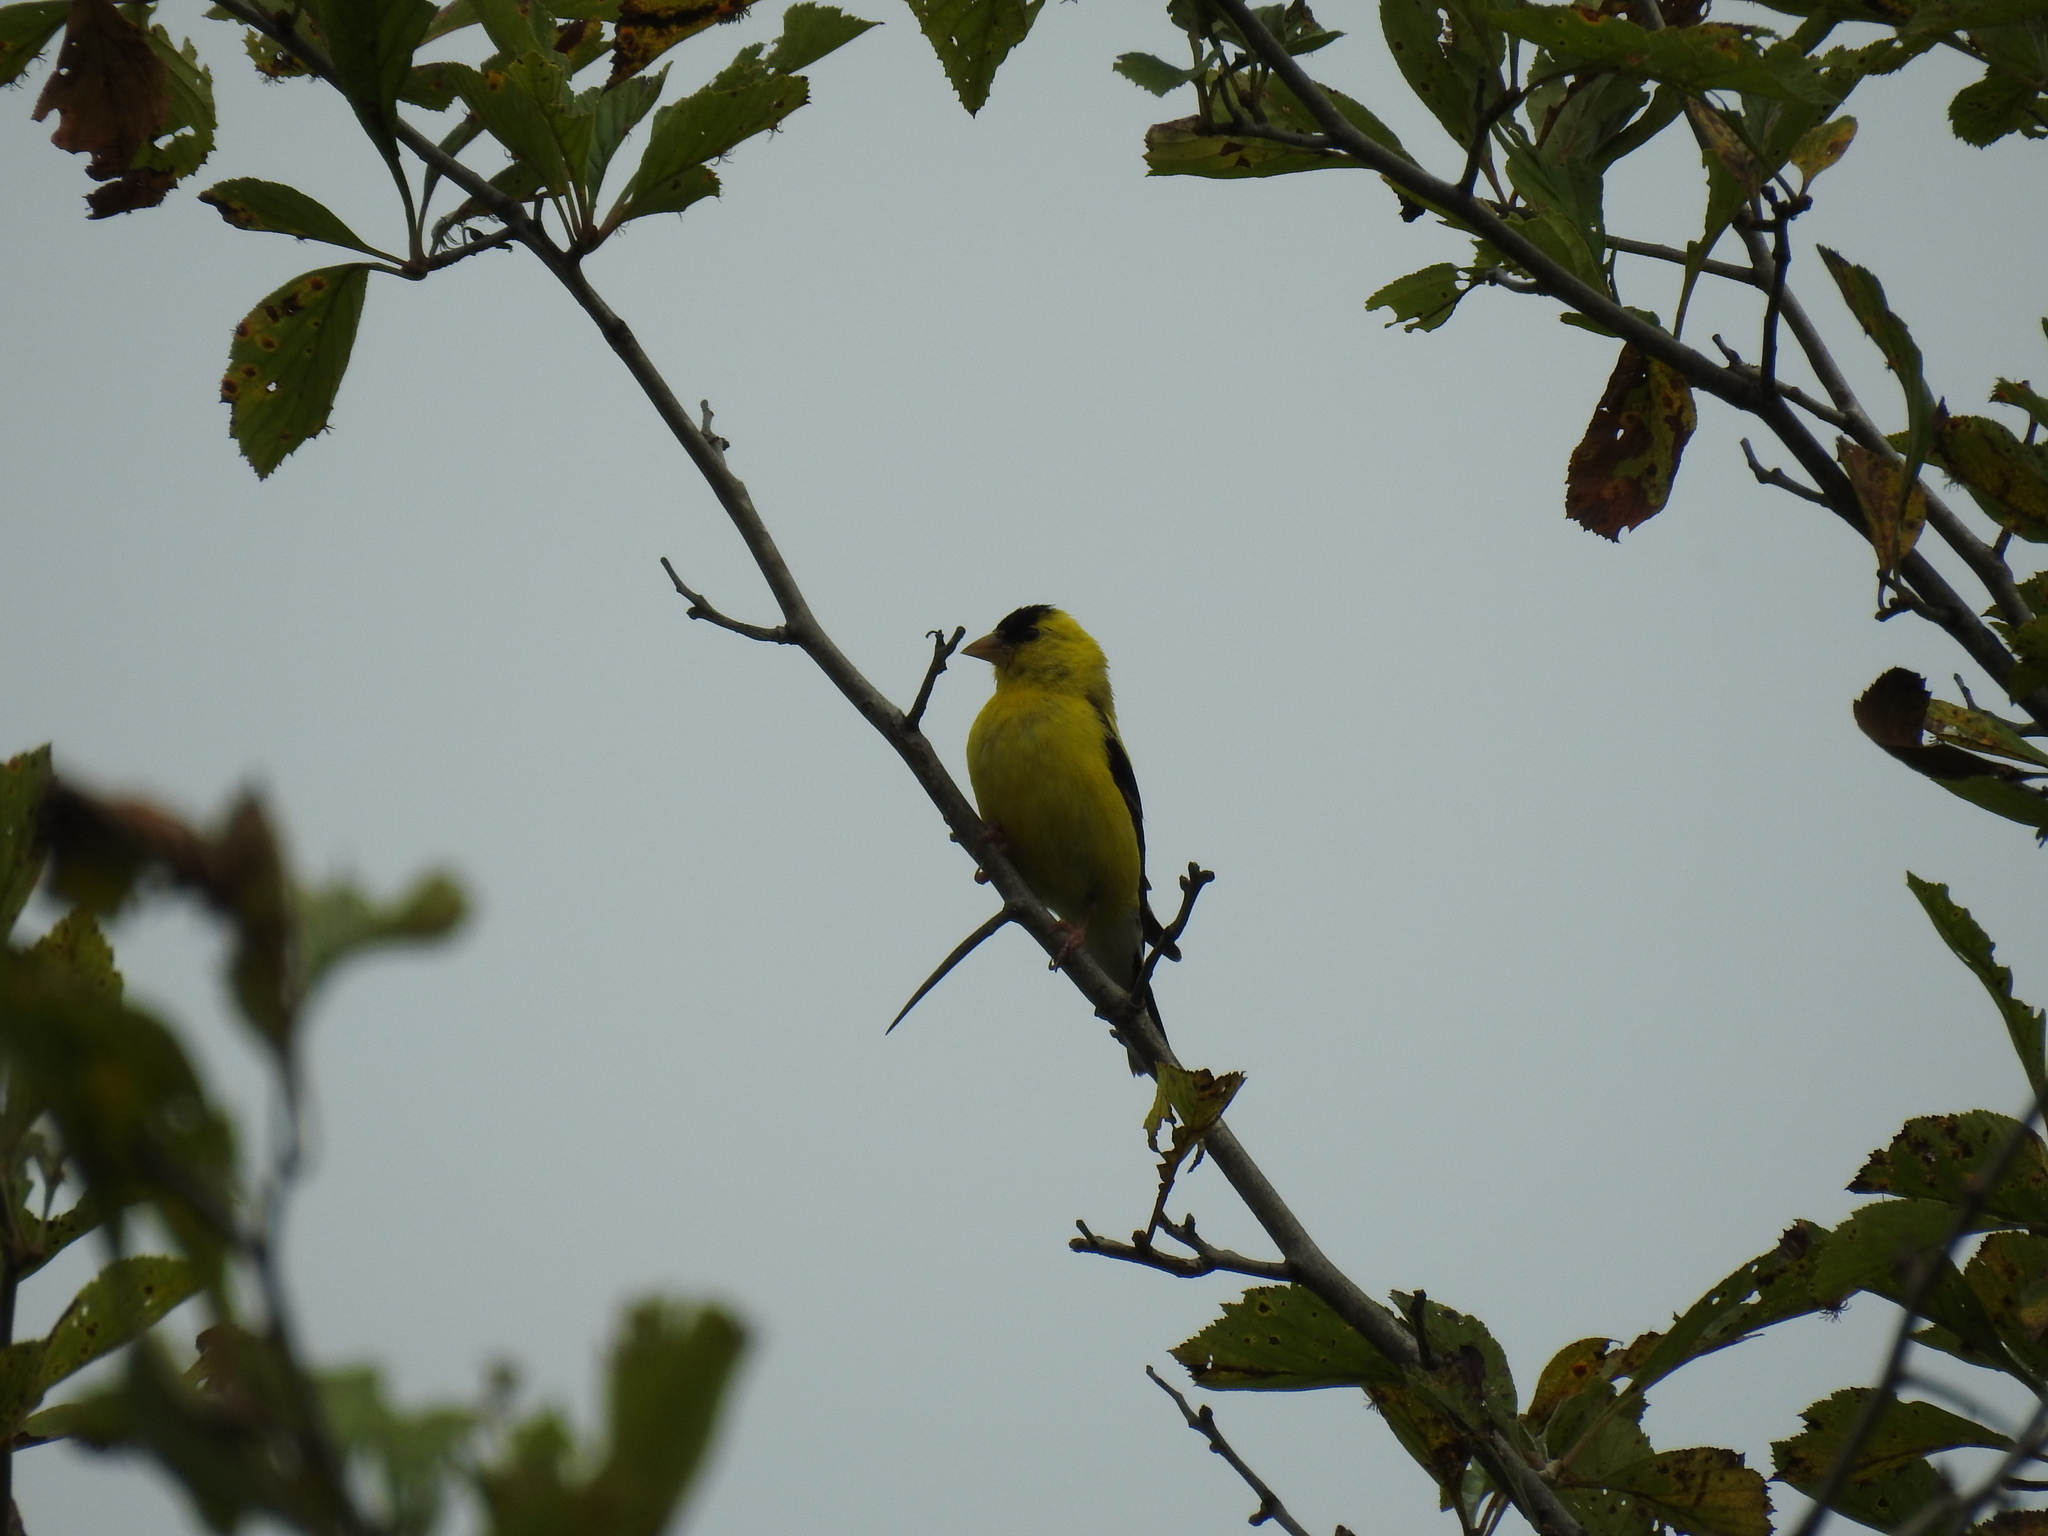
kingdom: Animalia
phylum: Chordata
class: Aves
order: Passeriformes
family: Fringillidae
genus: Spinus
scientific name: Spinus tristis
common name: American goldfinch
